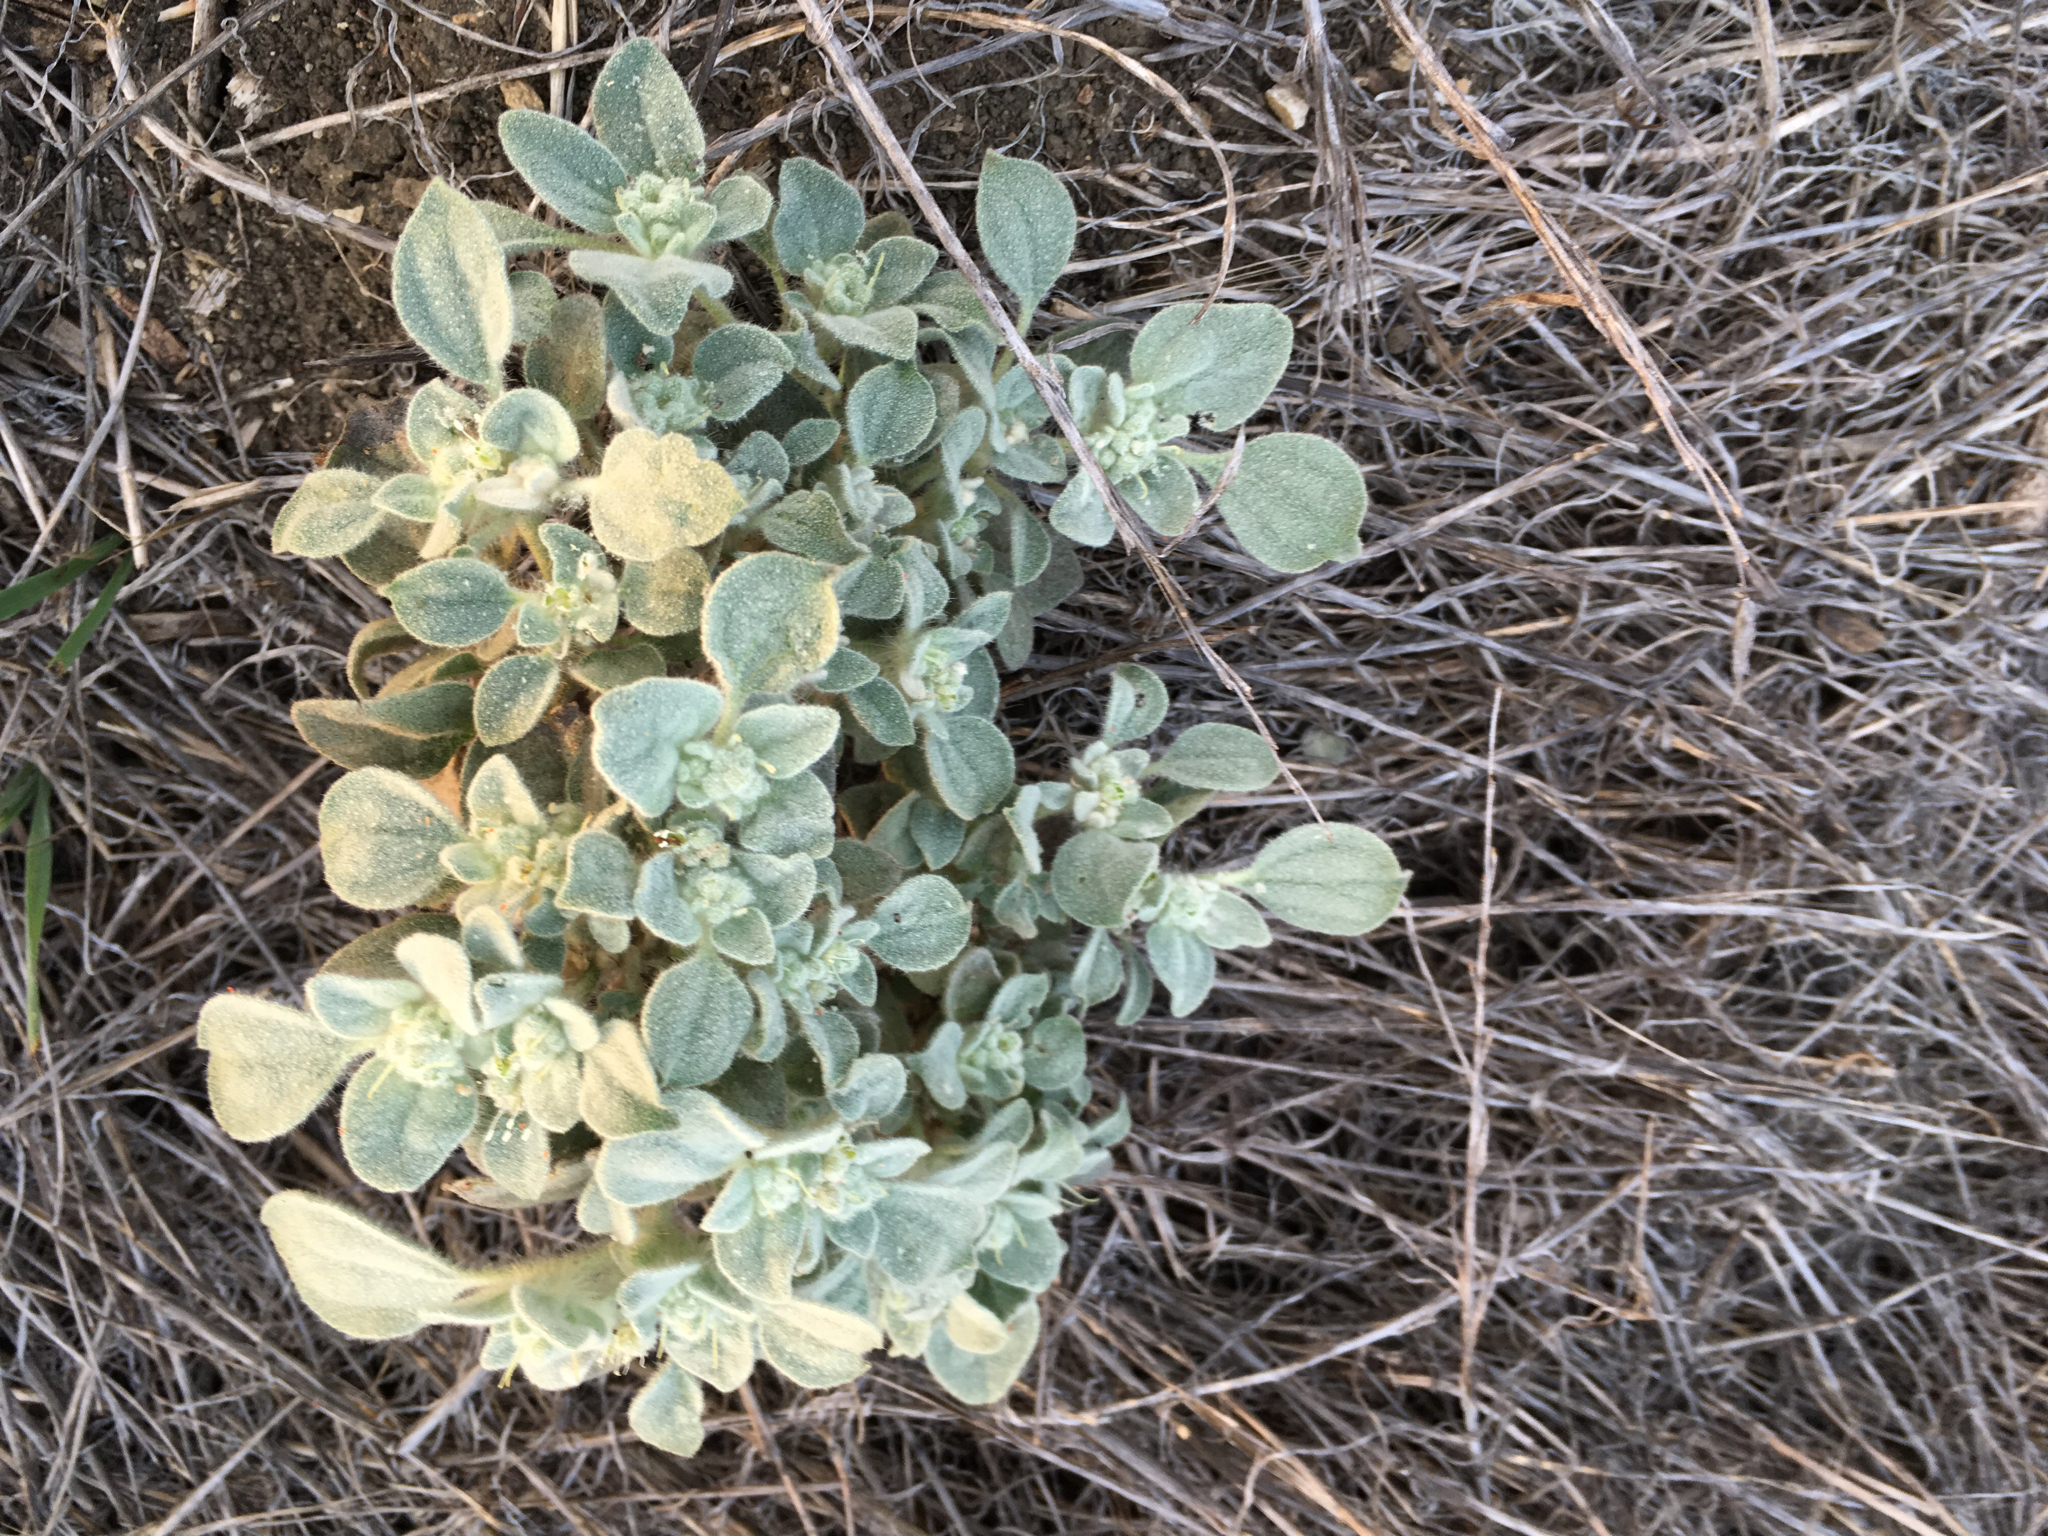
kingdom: Plantae
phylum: Tracheophyta
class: Magnoliopsida
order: Malpighiales
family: Euphorbiaceae
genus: Croton
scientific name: Croton setiger
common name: Dove weed
